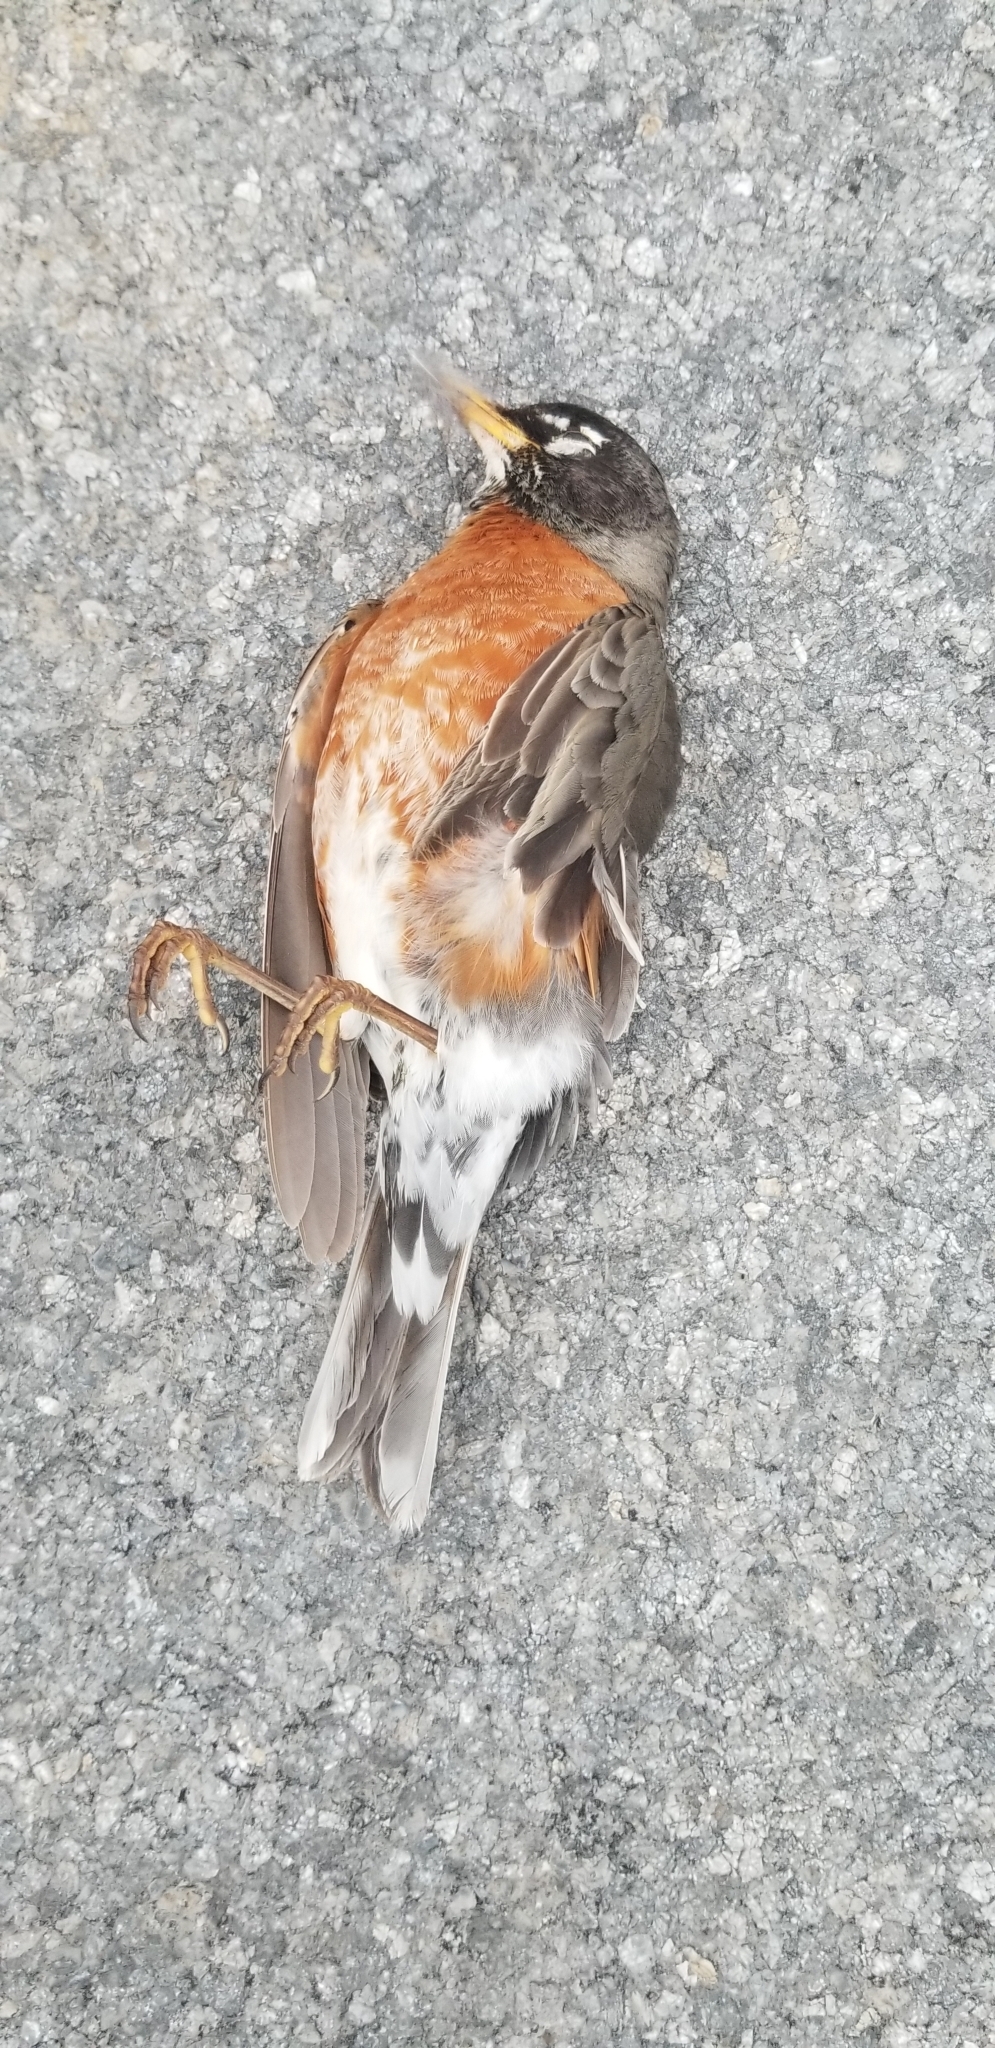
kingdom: Animalia
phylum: Chordata
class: Aves
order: Passeriformes
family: Turdidae
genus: Turdus
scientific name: Turdus migratorius
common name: American robin
